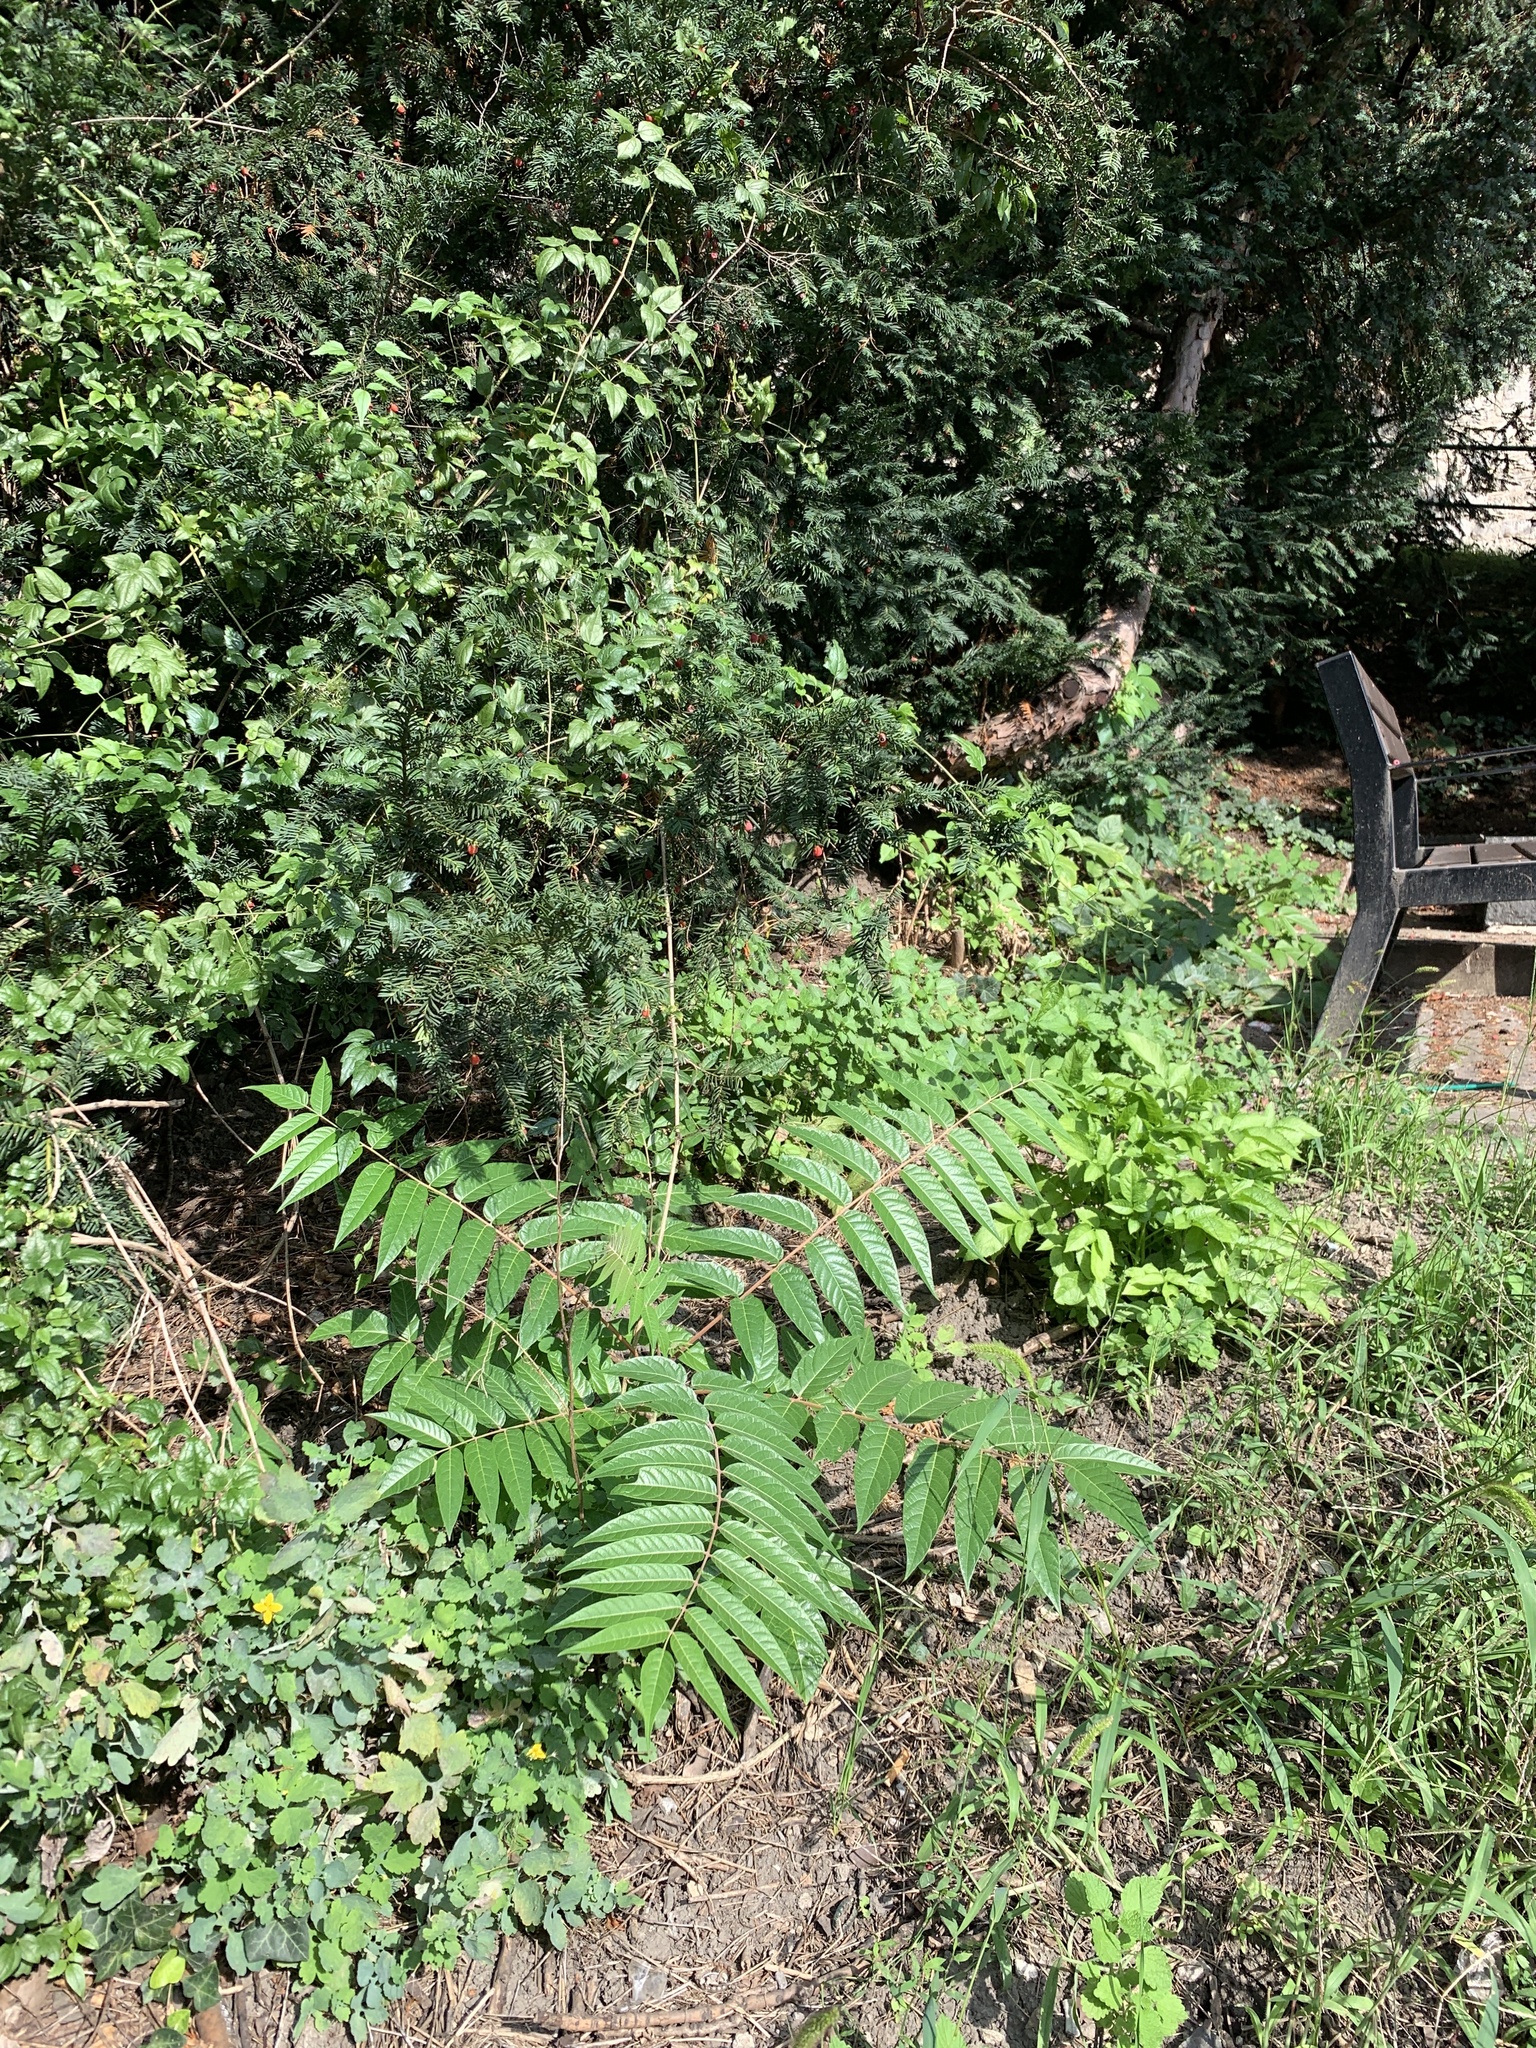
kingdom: Plantae
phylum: Tracheophyta
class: Magnoliopsida
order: Sapindales
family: Simaroubaceae
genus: Ailanthus
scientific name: Ailanthus altissima
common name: Tree-of-heaven
